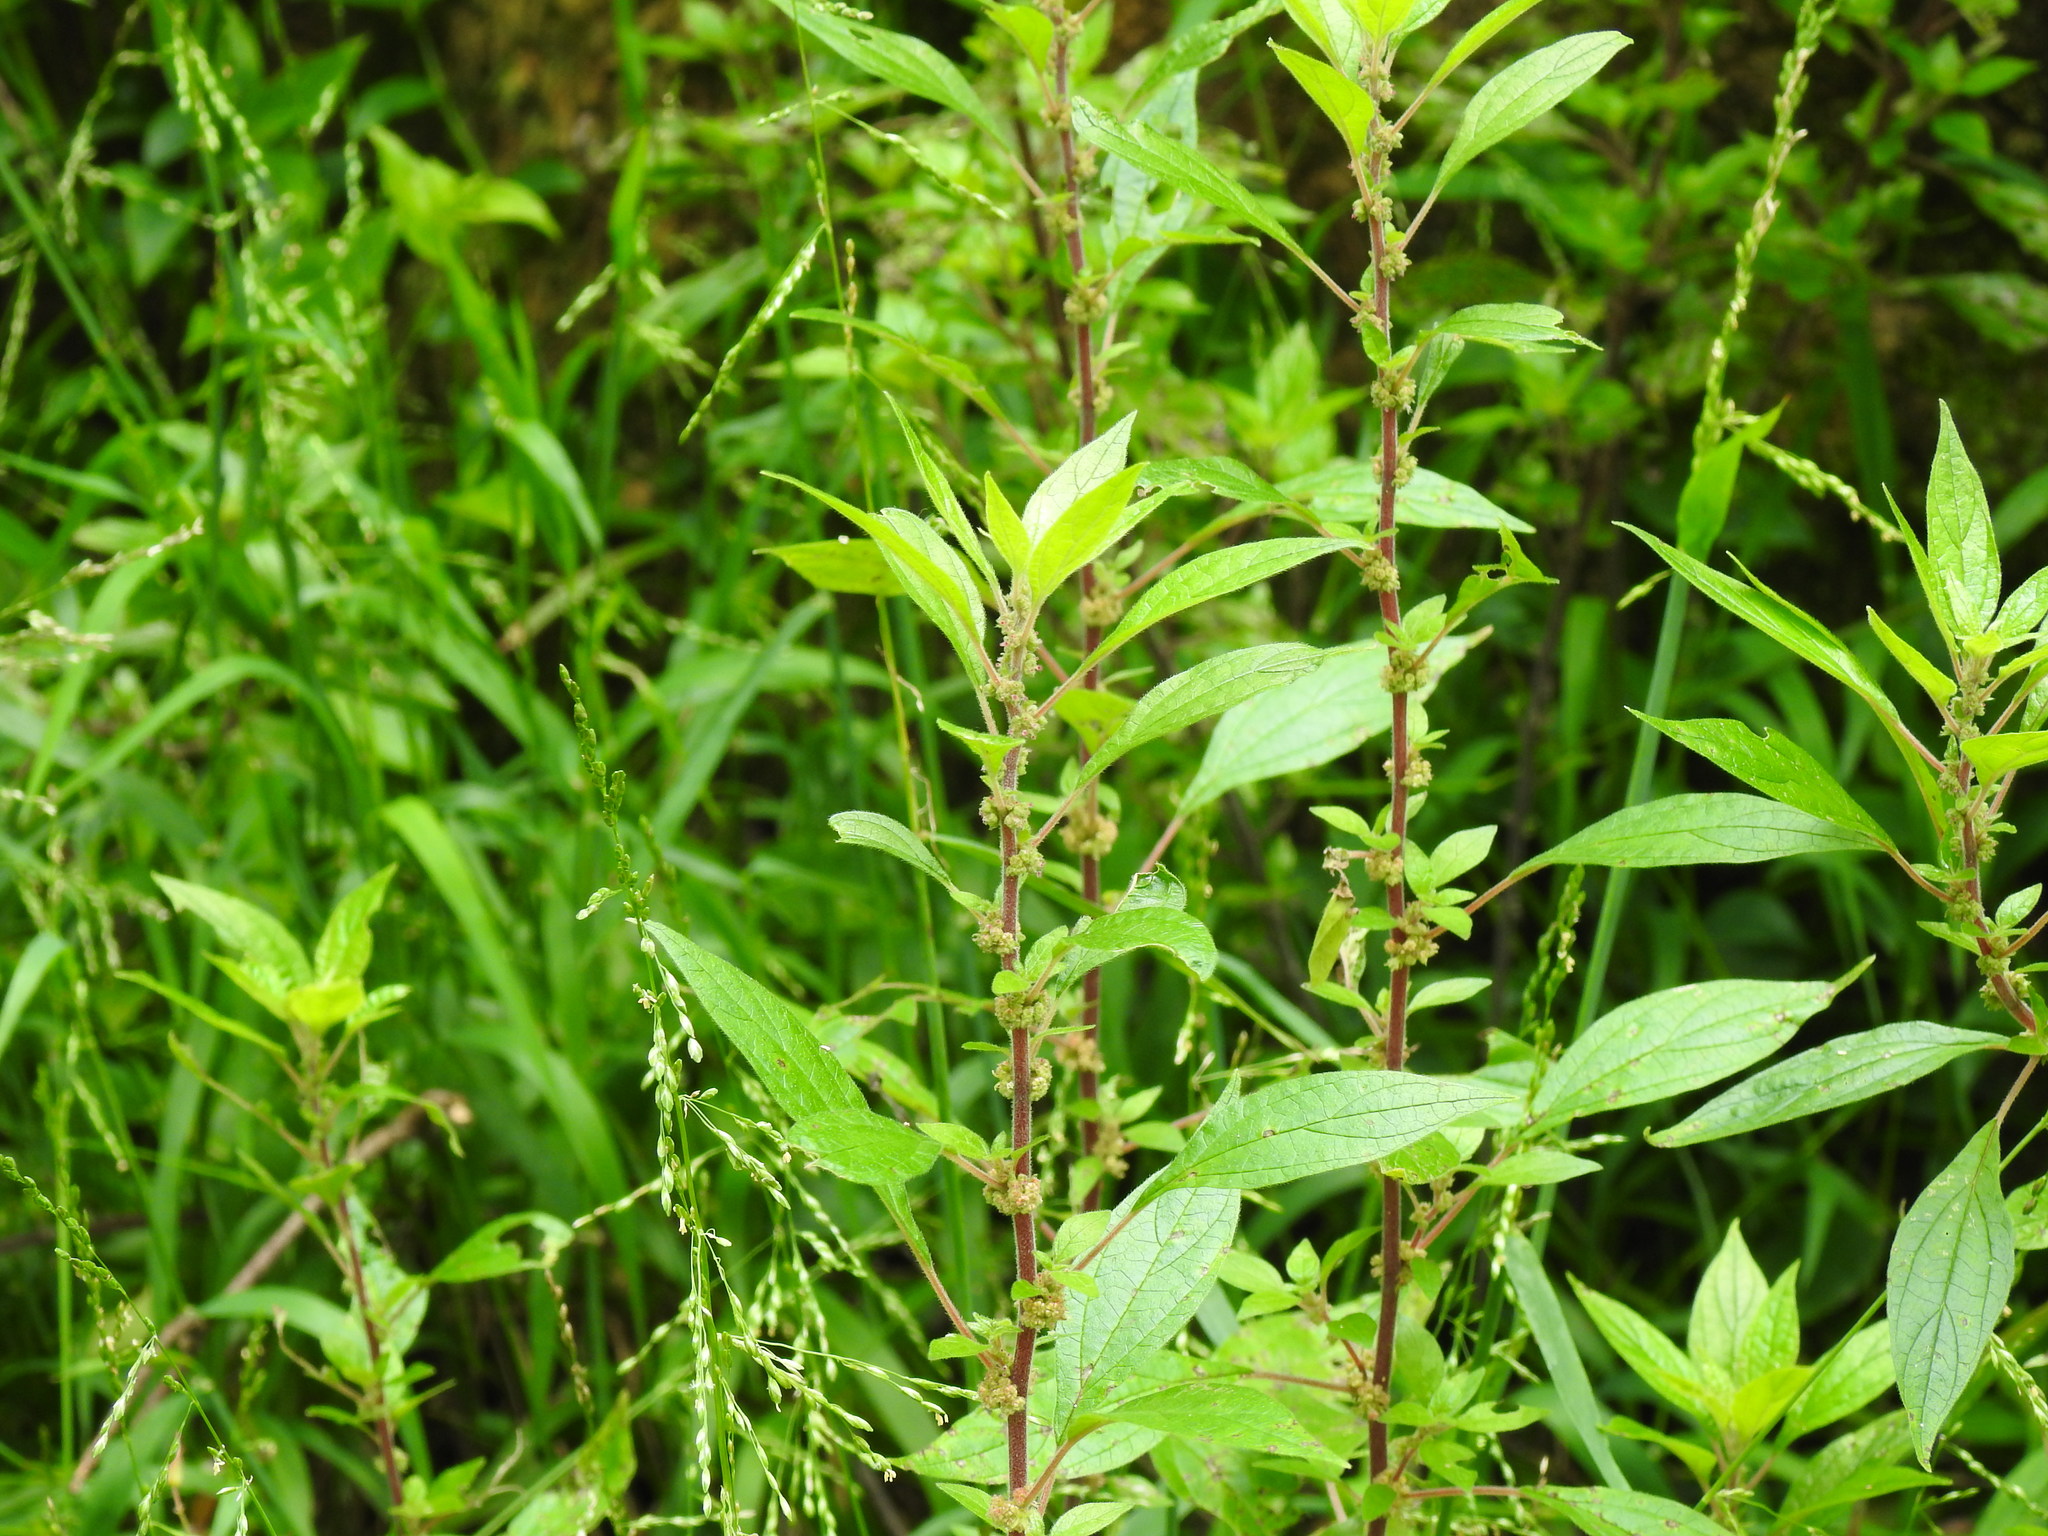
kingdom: Plantae
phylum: Tracheophyta
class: Magnoliopsida
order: Rosales
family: Urticaceae
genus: Parietaria
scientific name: Parietaria judaica
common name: Pellitory-of-the-wall
